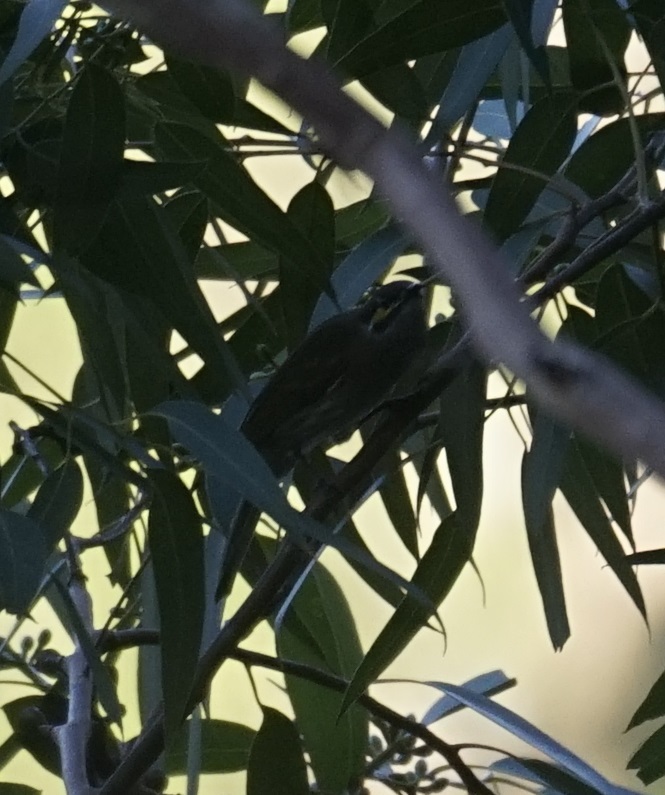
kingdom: Animalia
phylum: Chordata
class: Aves
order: Passeriformes
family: Meliphagidae
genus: Caligavis
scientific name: Caligavis chrysops
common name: Yellow-faced honeyeater
